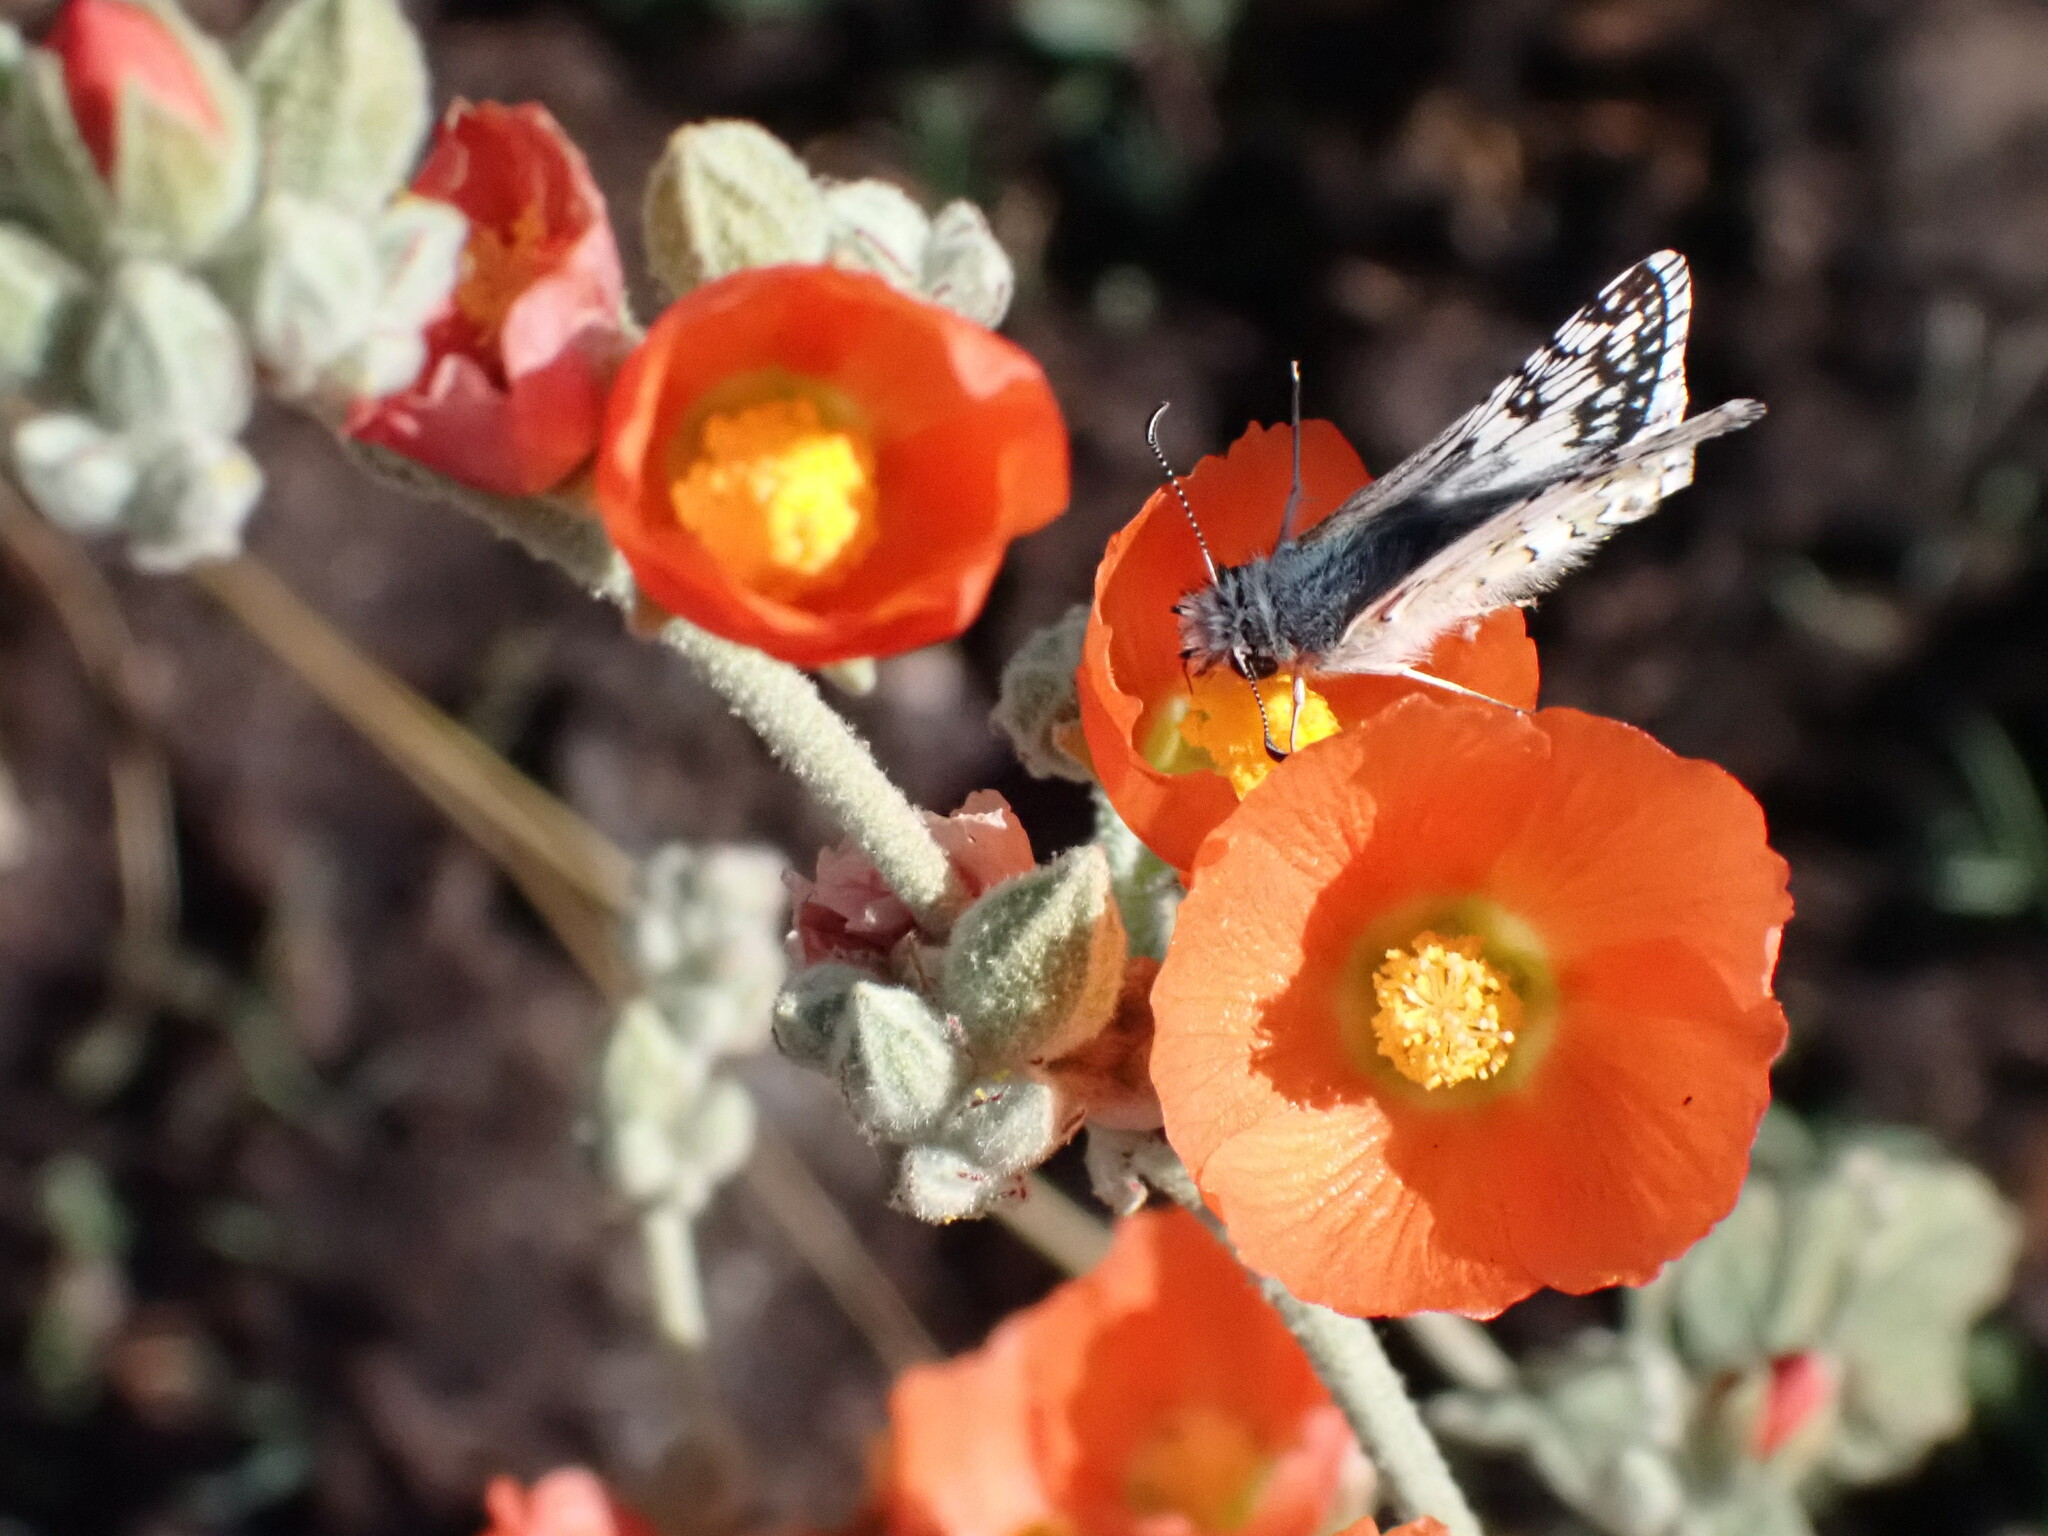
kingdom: Animalia
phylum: Arthropoda
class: Insecta
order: Lepidoptera
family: Hesperiidae
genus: Burnsius
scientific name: Burnsius communis
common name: Common checkered-skipper
